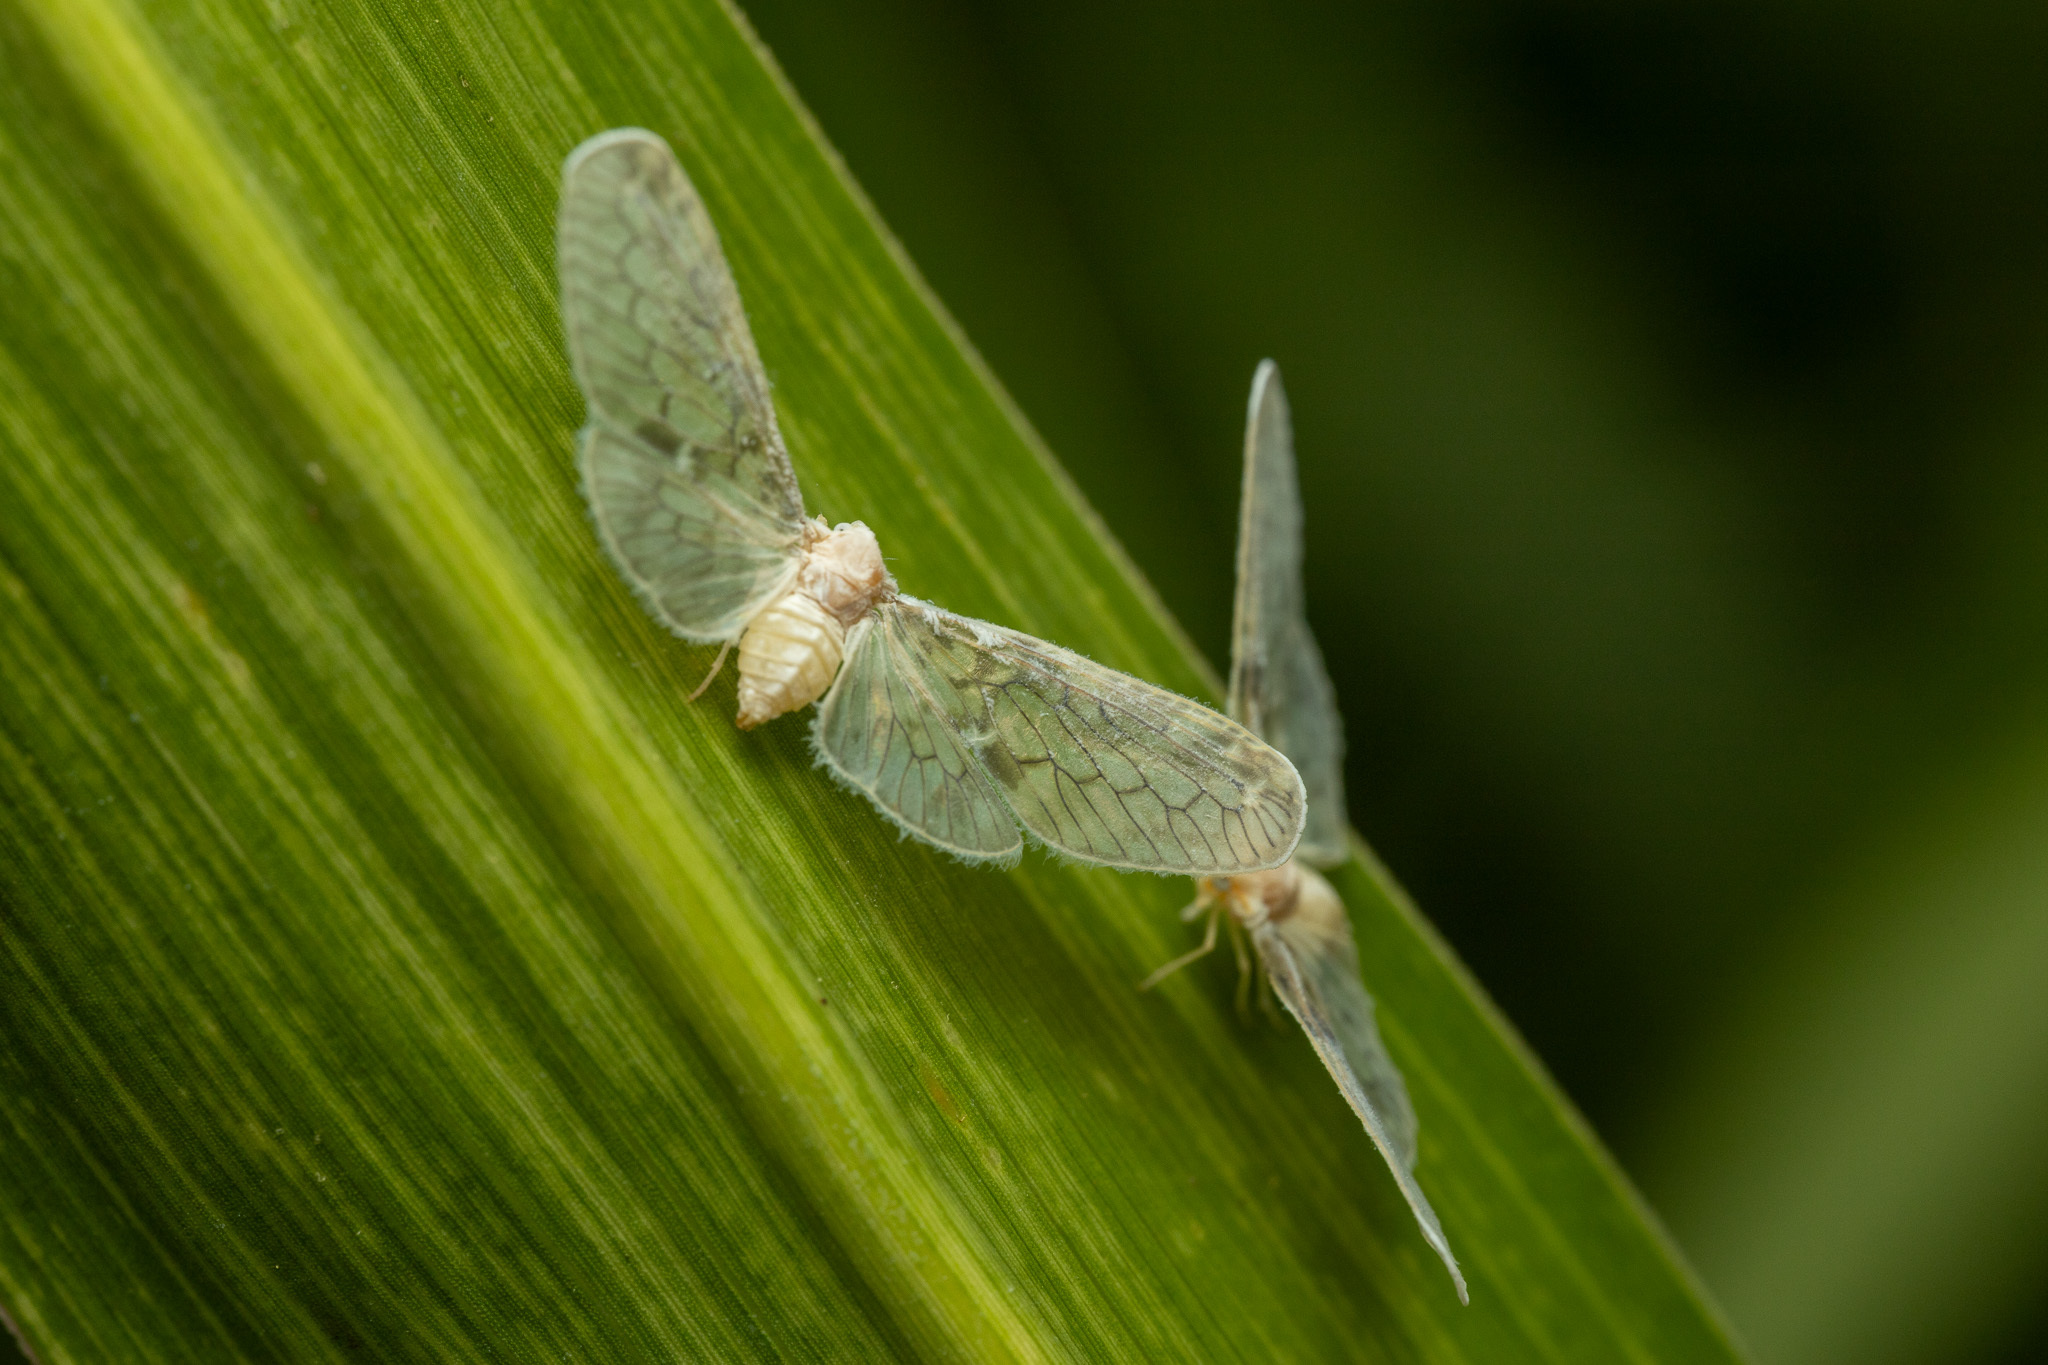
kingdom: Animalia
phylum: Arthropoda
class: Insecta
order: Hemiptera
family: Derbidae
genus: Paramysidia
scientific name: Paramysidia mississippiensis
